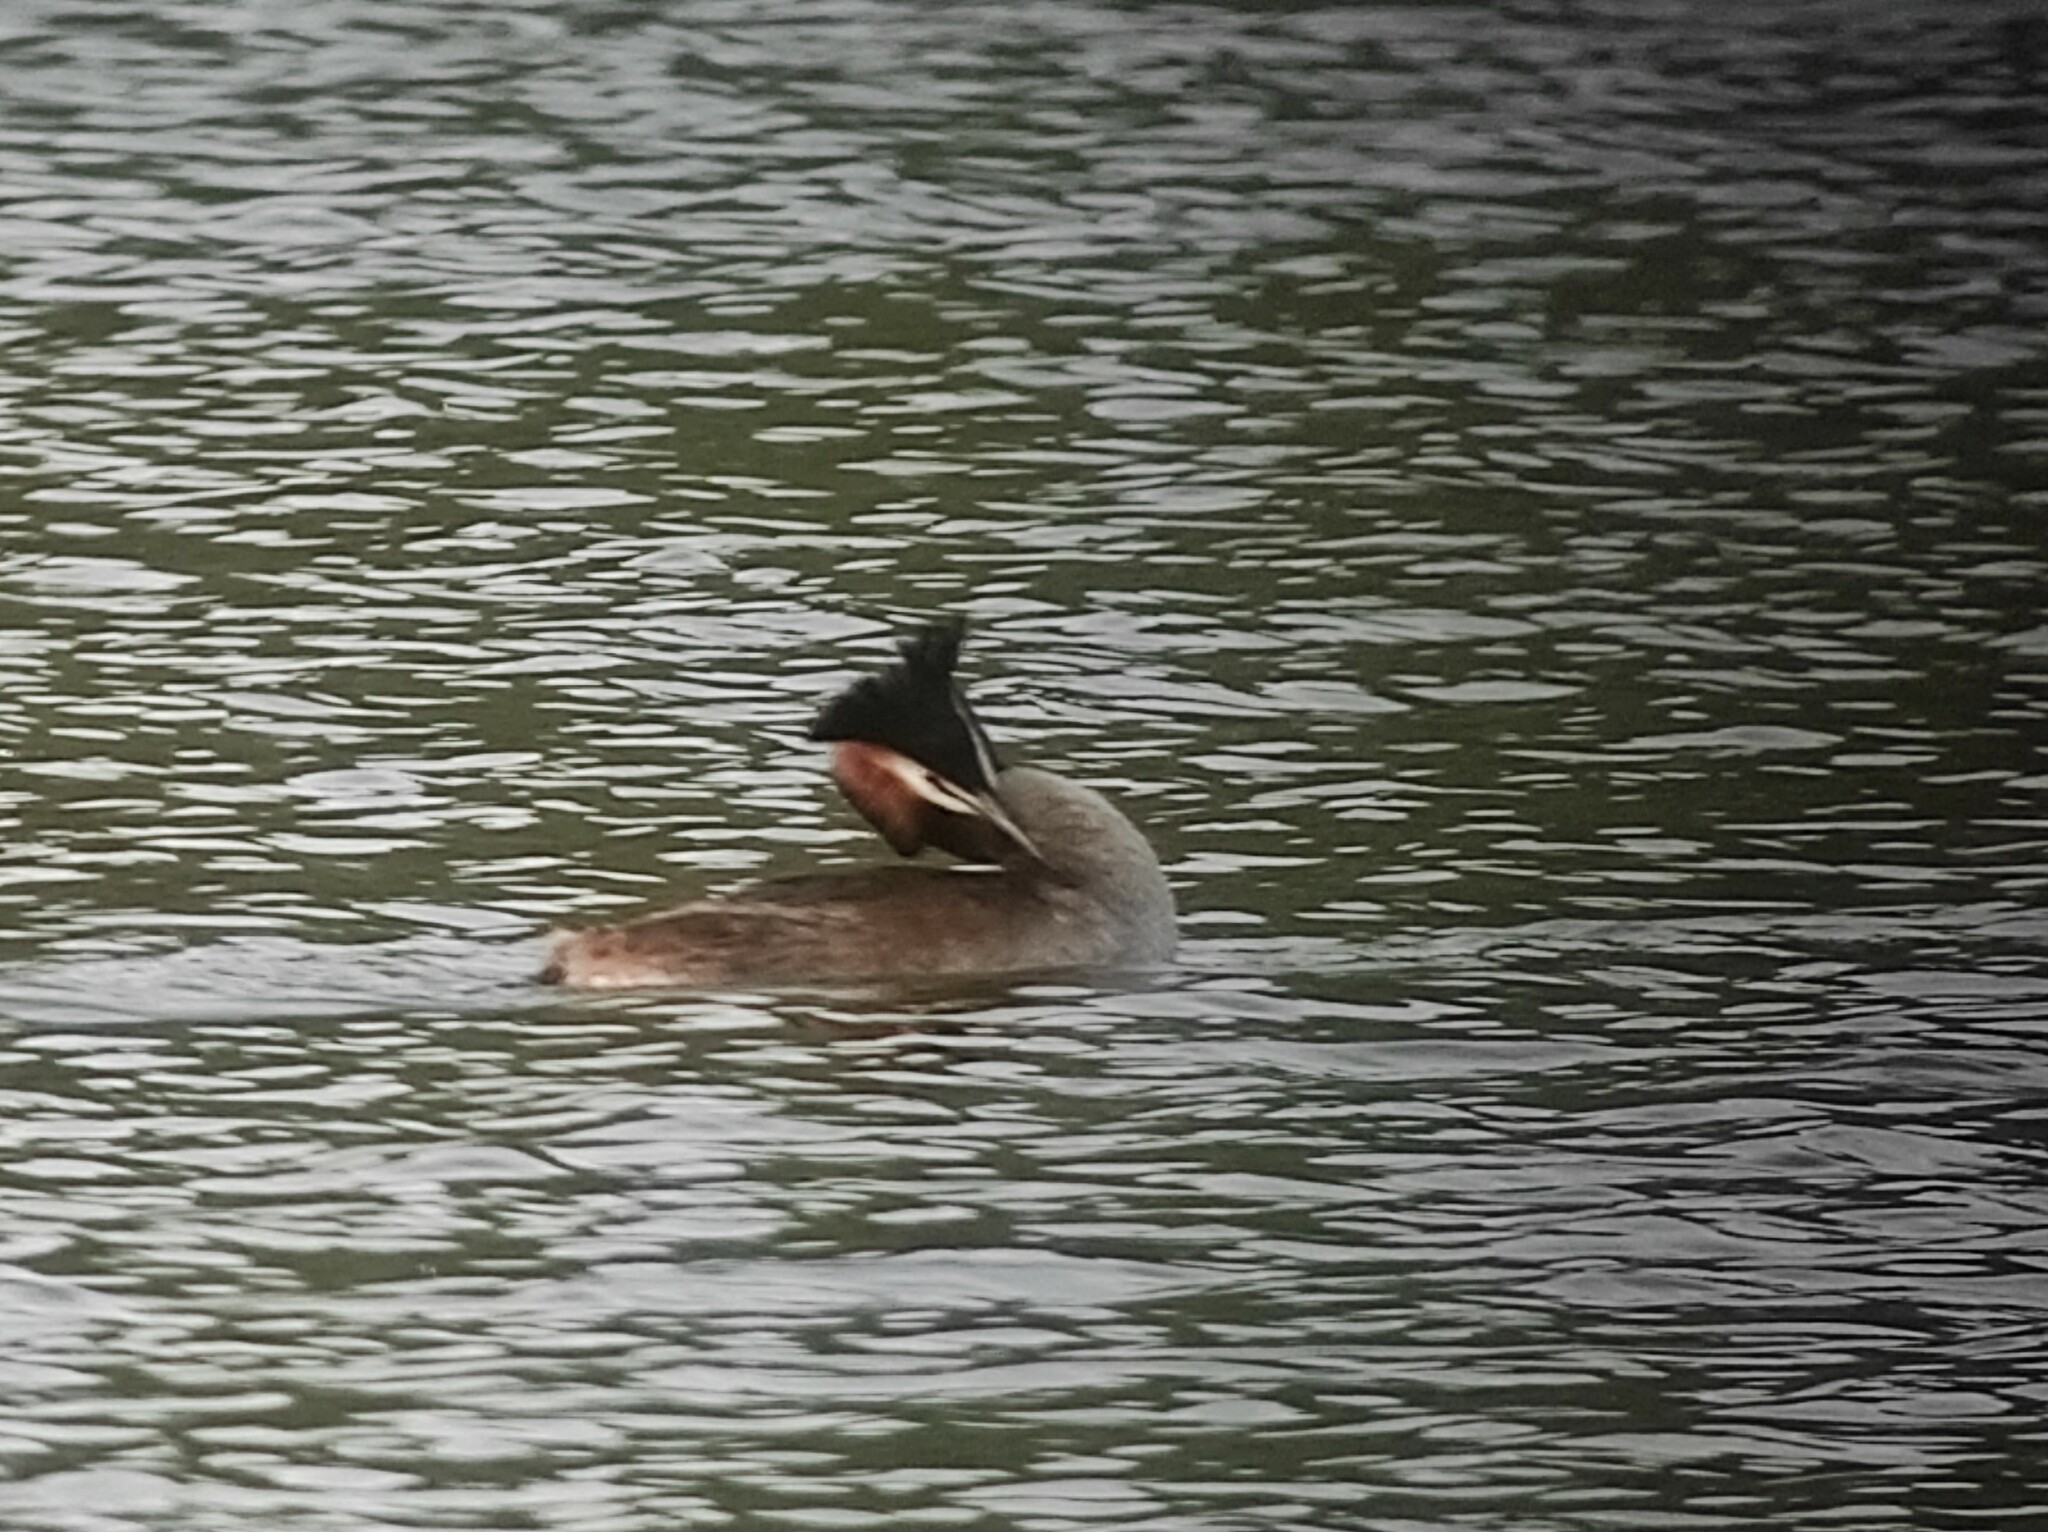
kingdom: Animalia
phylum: Chordata
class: Aves
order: Podicipediformes
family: Podicipedidae
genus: Podiceps
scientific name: Podiceps cristatus
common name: Great crested grebe
